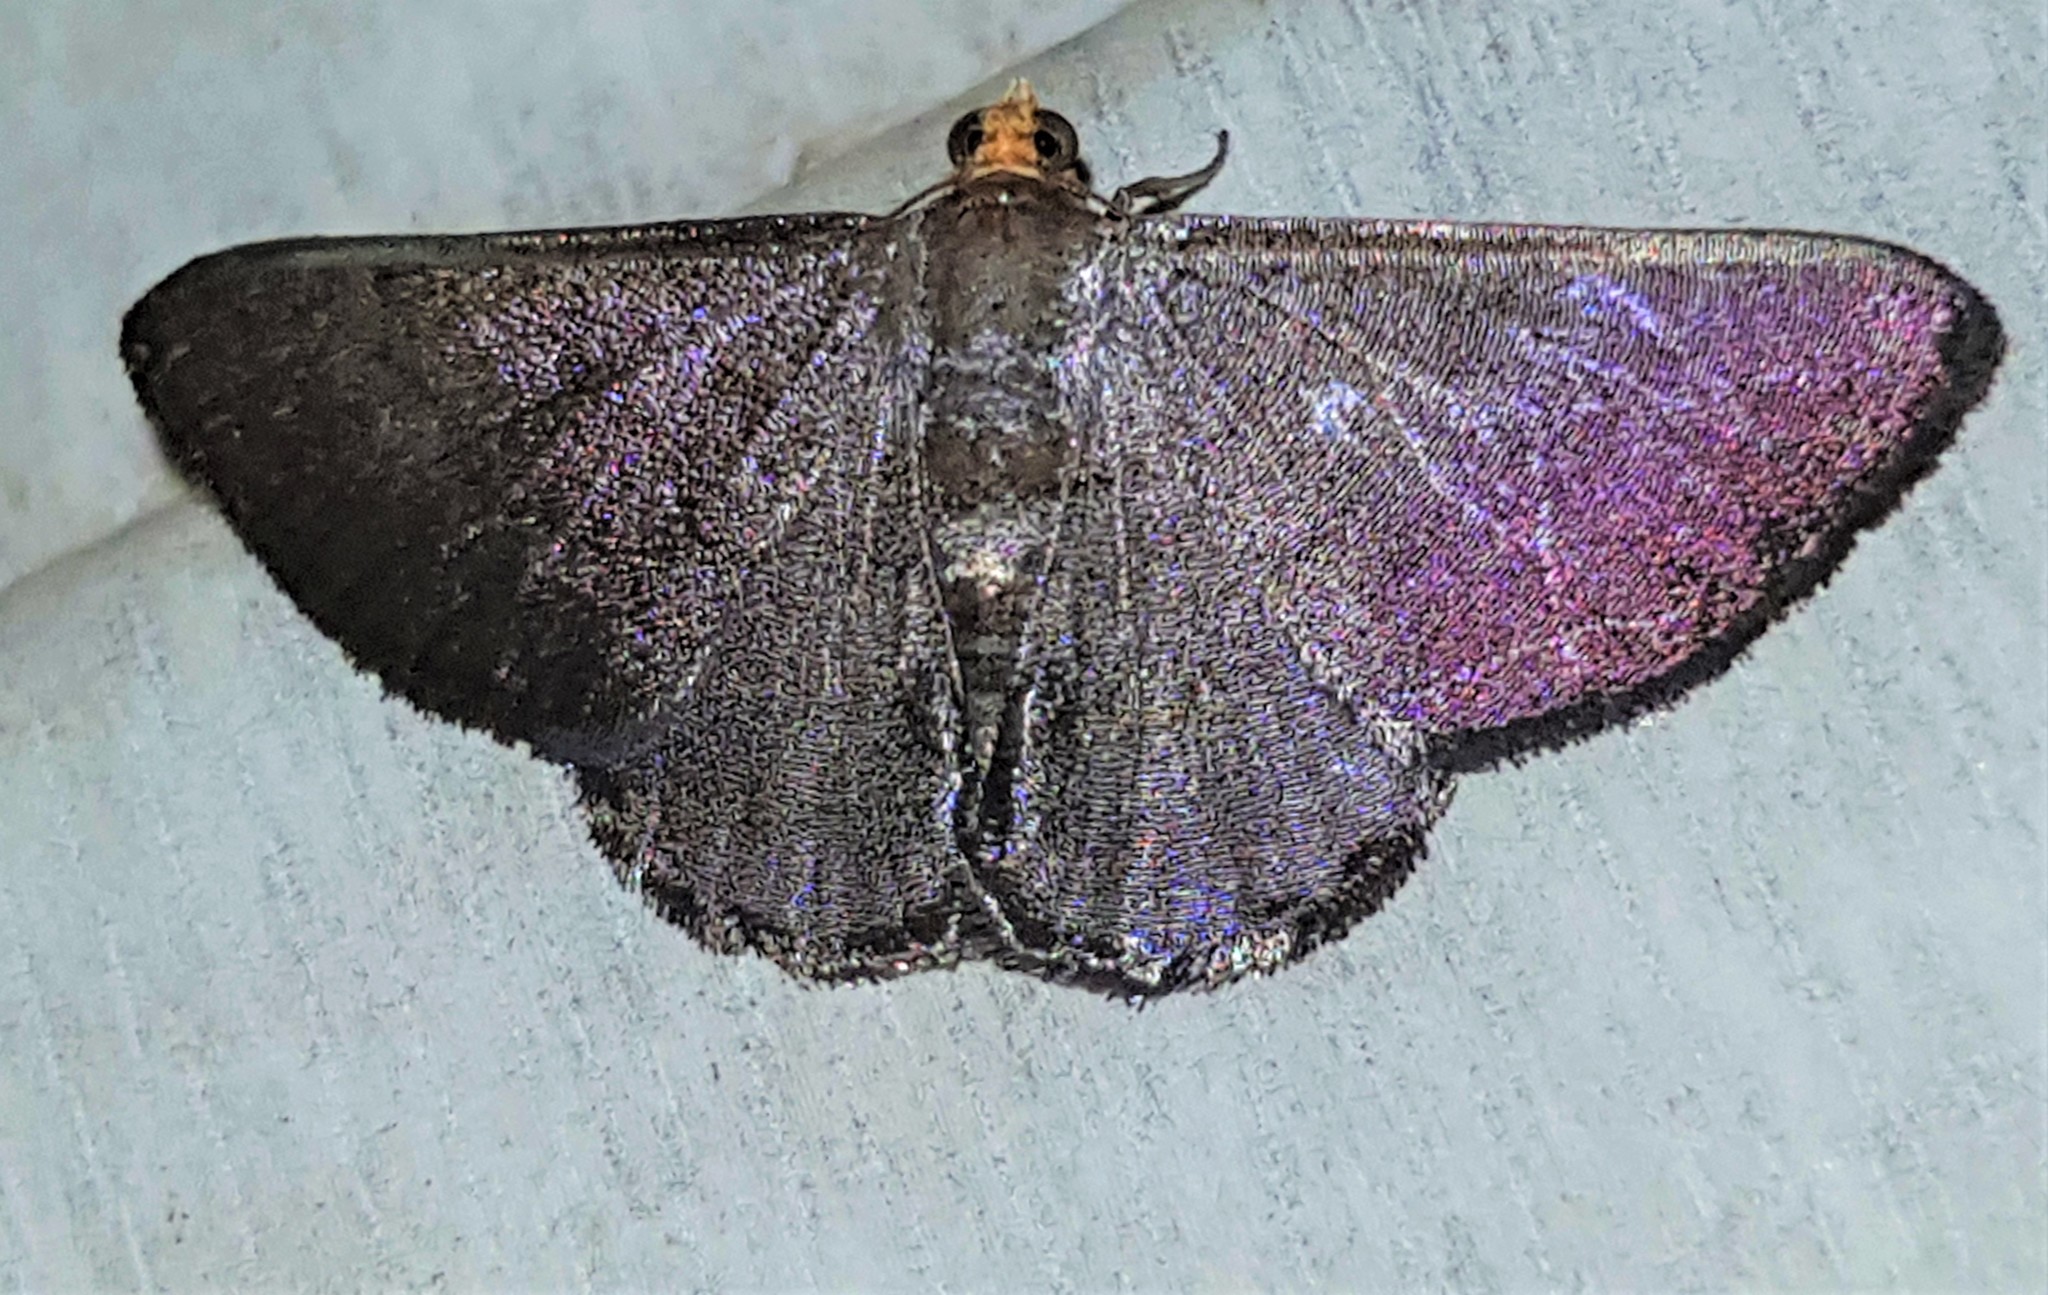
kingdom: Animalia
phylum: Arthropoda
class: Insecta
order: Lepidoptera
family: Geometridae
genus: Gyostega
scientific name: Gyostega violacea
